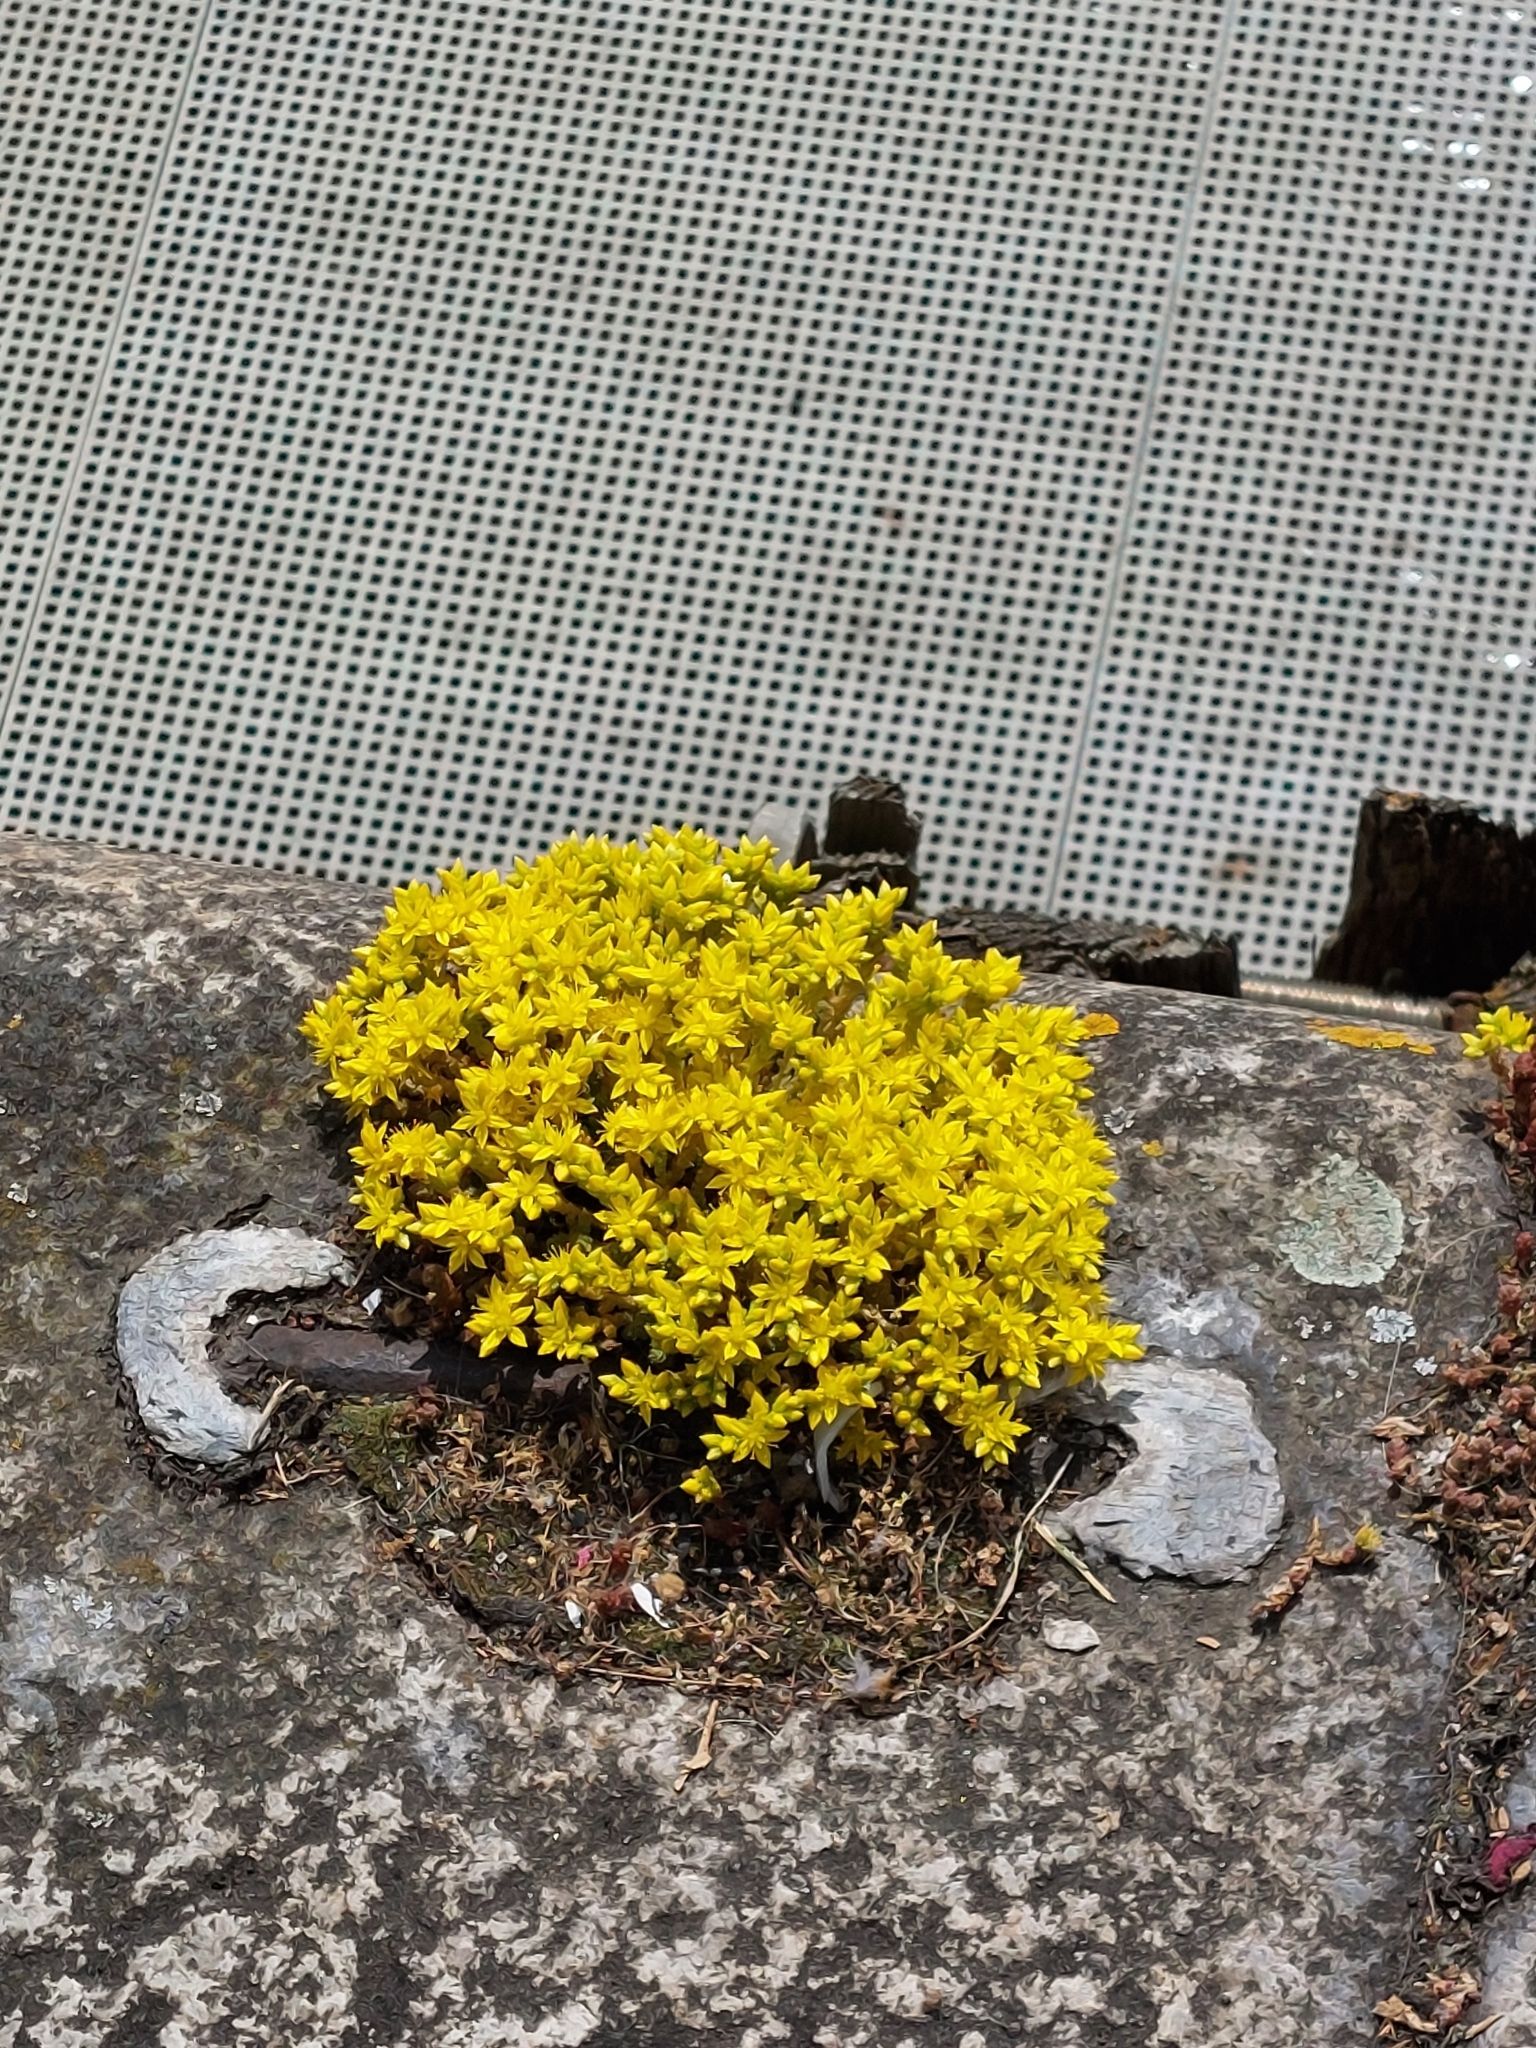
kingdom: Plantae
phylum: Tracheophyta
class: Magnoliopsida
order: Saxifragales
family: Crassulaceae
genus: Sedum
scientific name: Sedum acre
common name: Biting stonecrop
